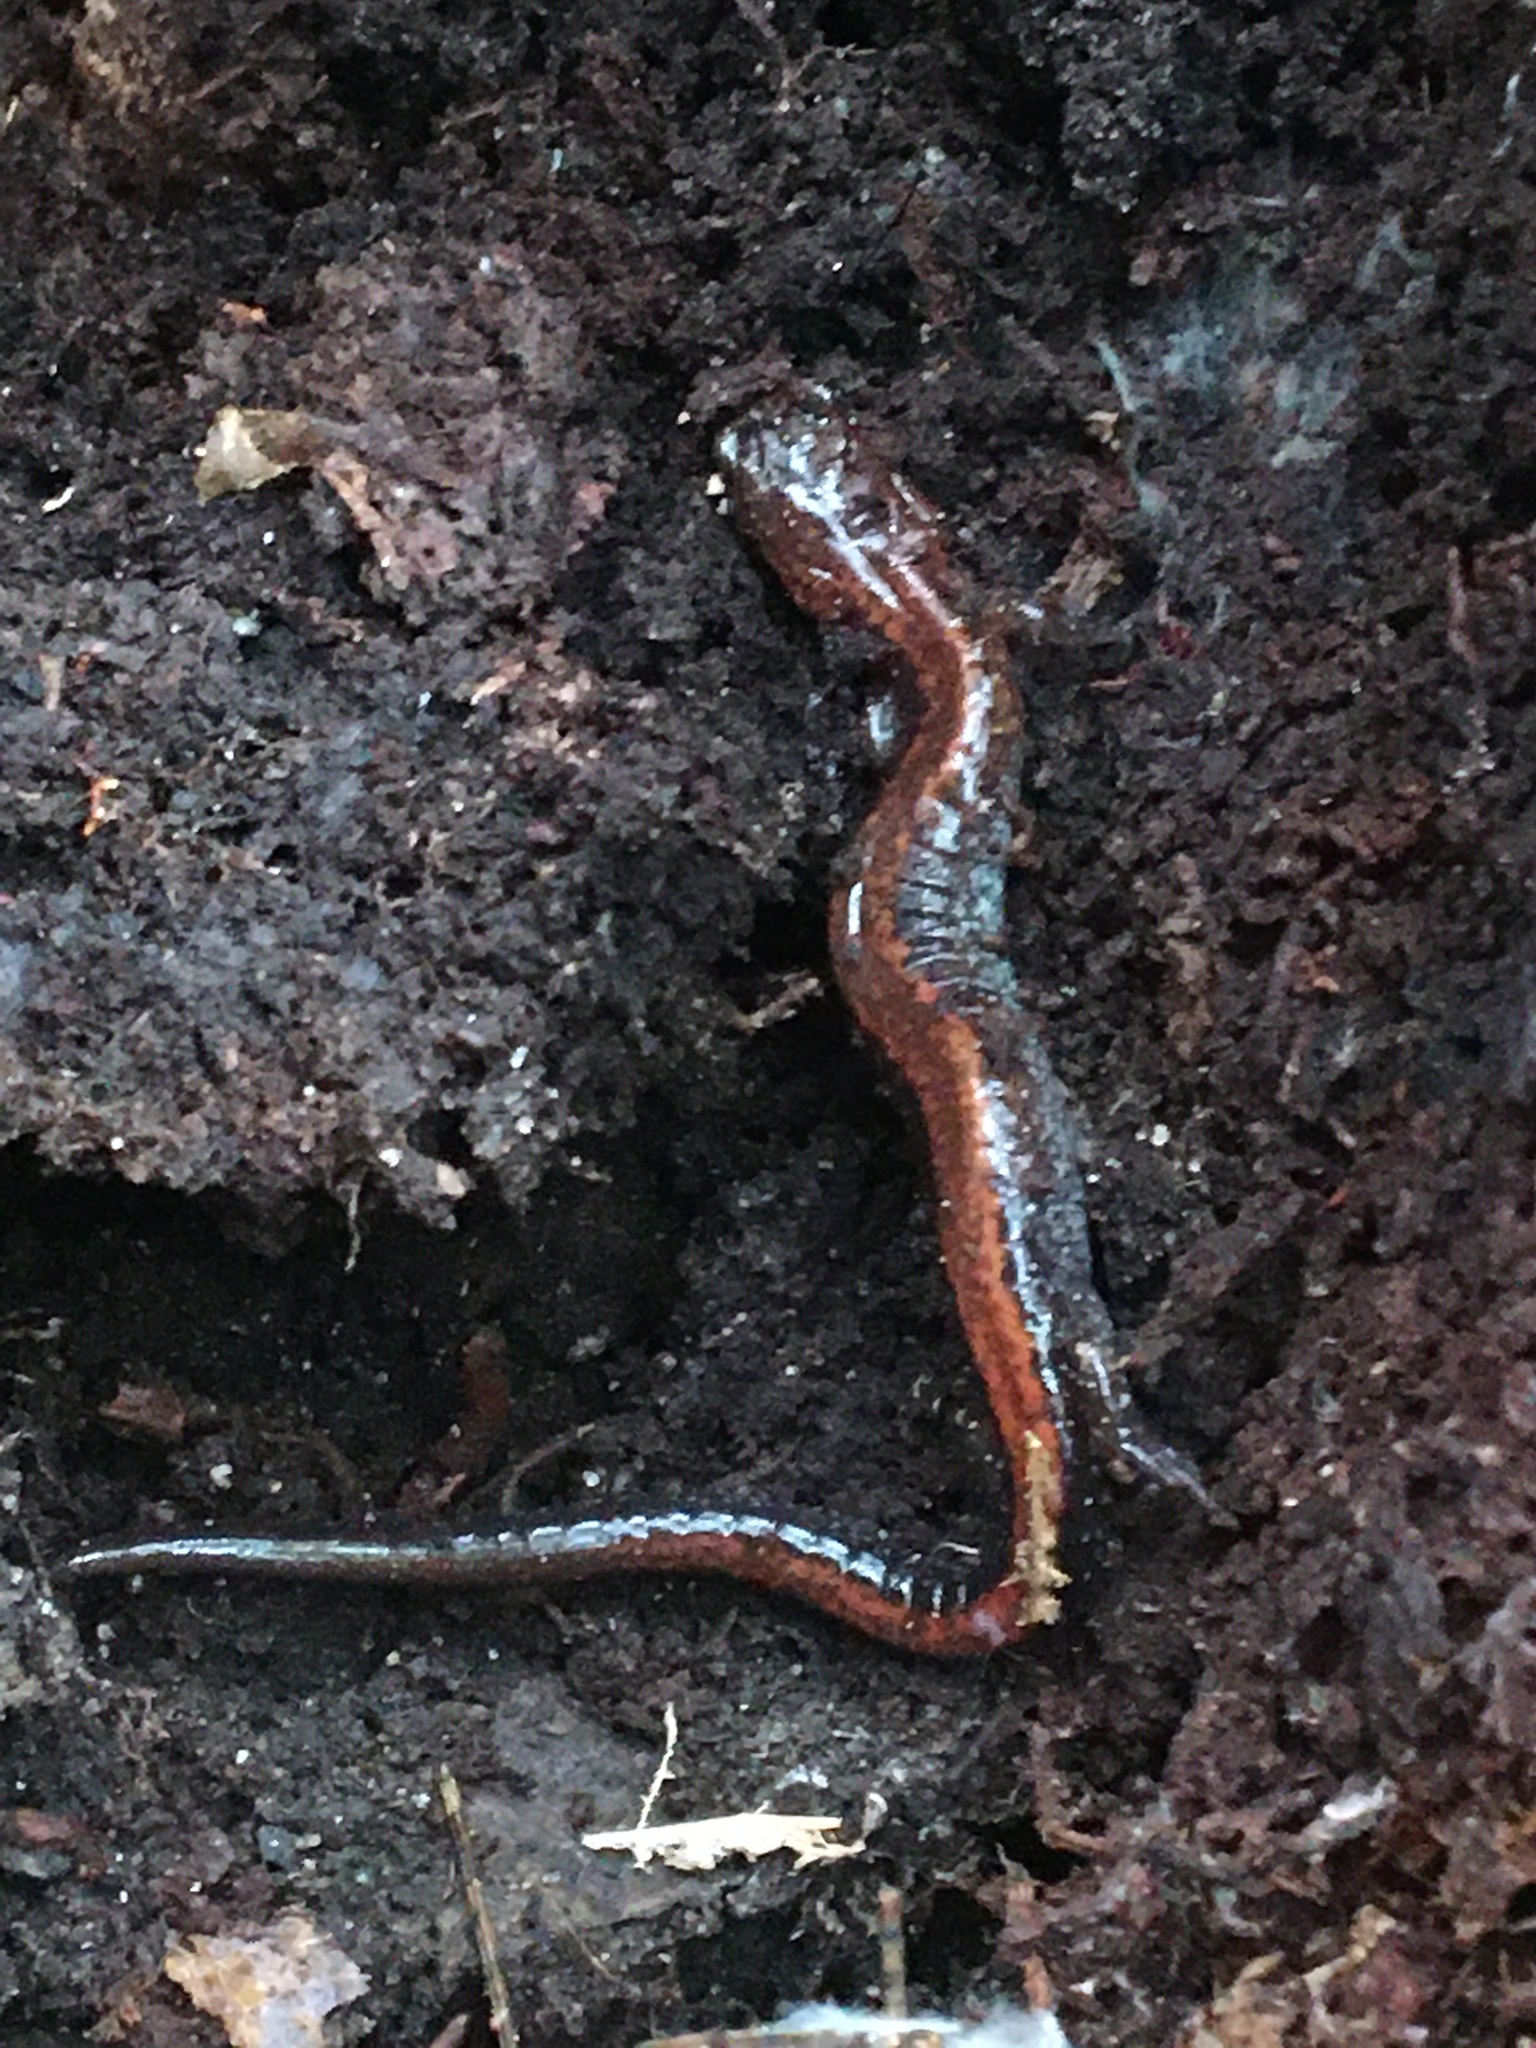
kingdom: Animalia
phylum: Chordata
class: Amphibia
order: Caudata
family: Plethodontidae
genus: Plethodon
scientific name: Plethodon cinereus
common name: Redback salamander
